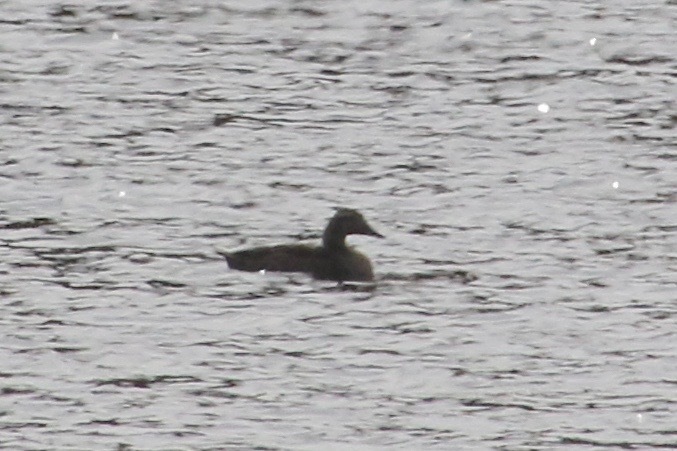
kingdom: Animalia
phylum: Chordata
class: Aves
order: Anseriformes
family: Anatidae
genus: Somateria
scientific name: Somateria mollissima
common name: Common eider
